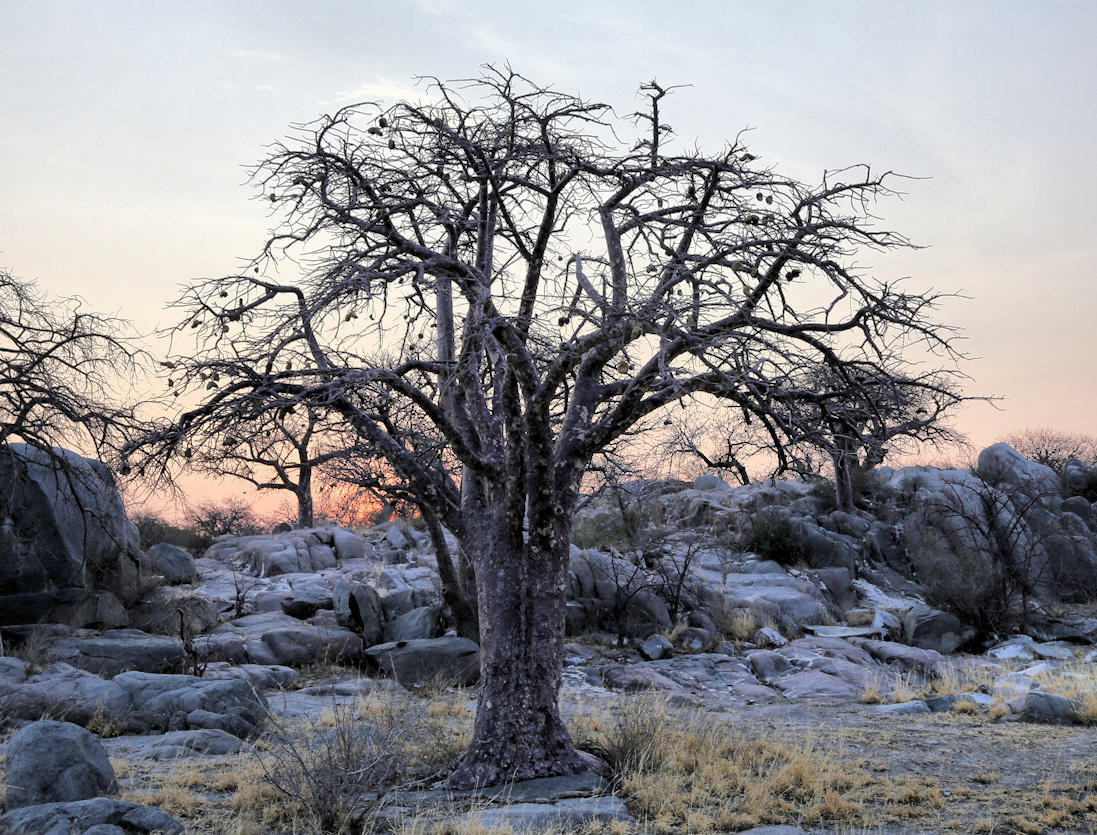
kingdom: Plantae
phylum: Tracheophyta
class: Magnoliopsida
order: Malvales
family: Malvaceae
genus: Sterculia
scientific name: Sterculia africana
